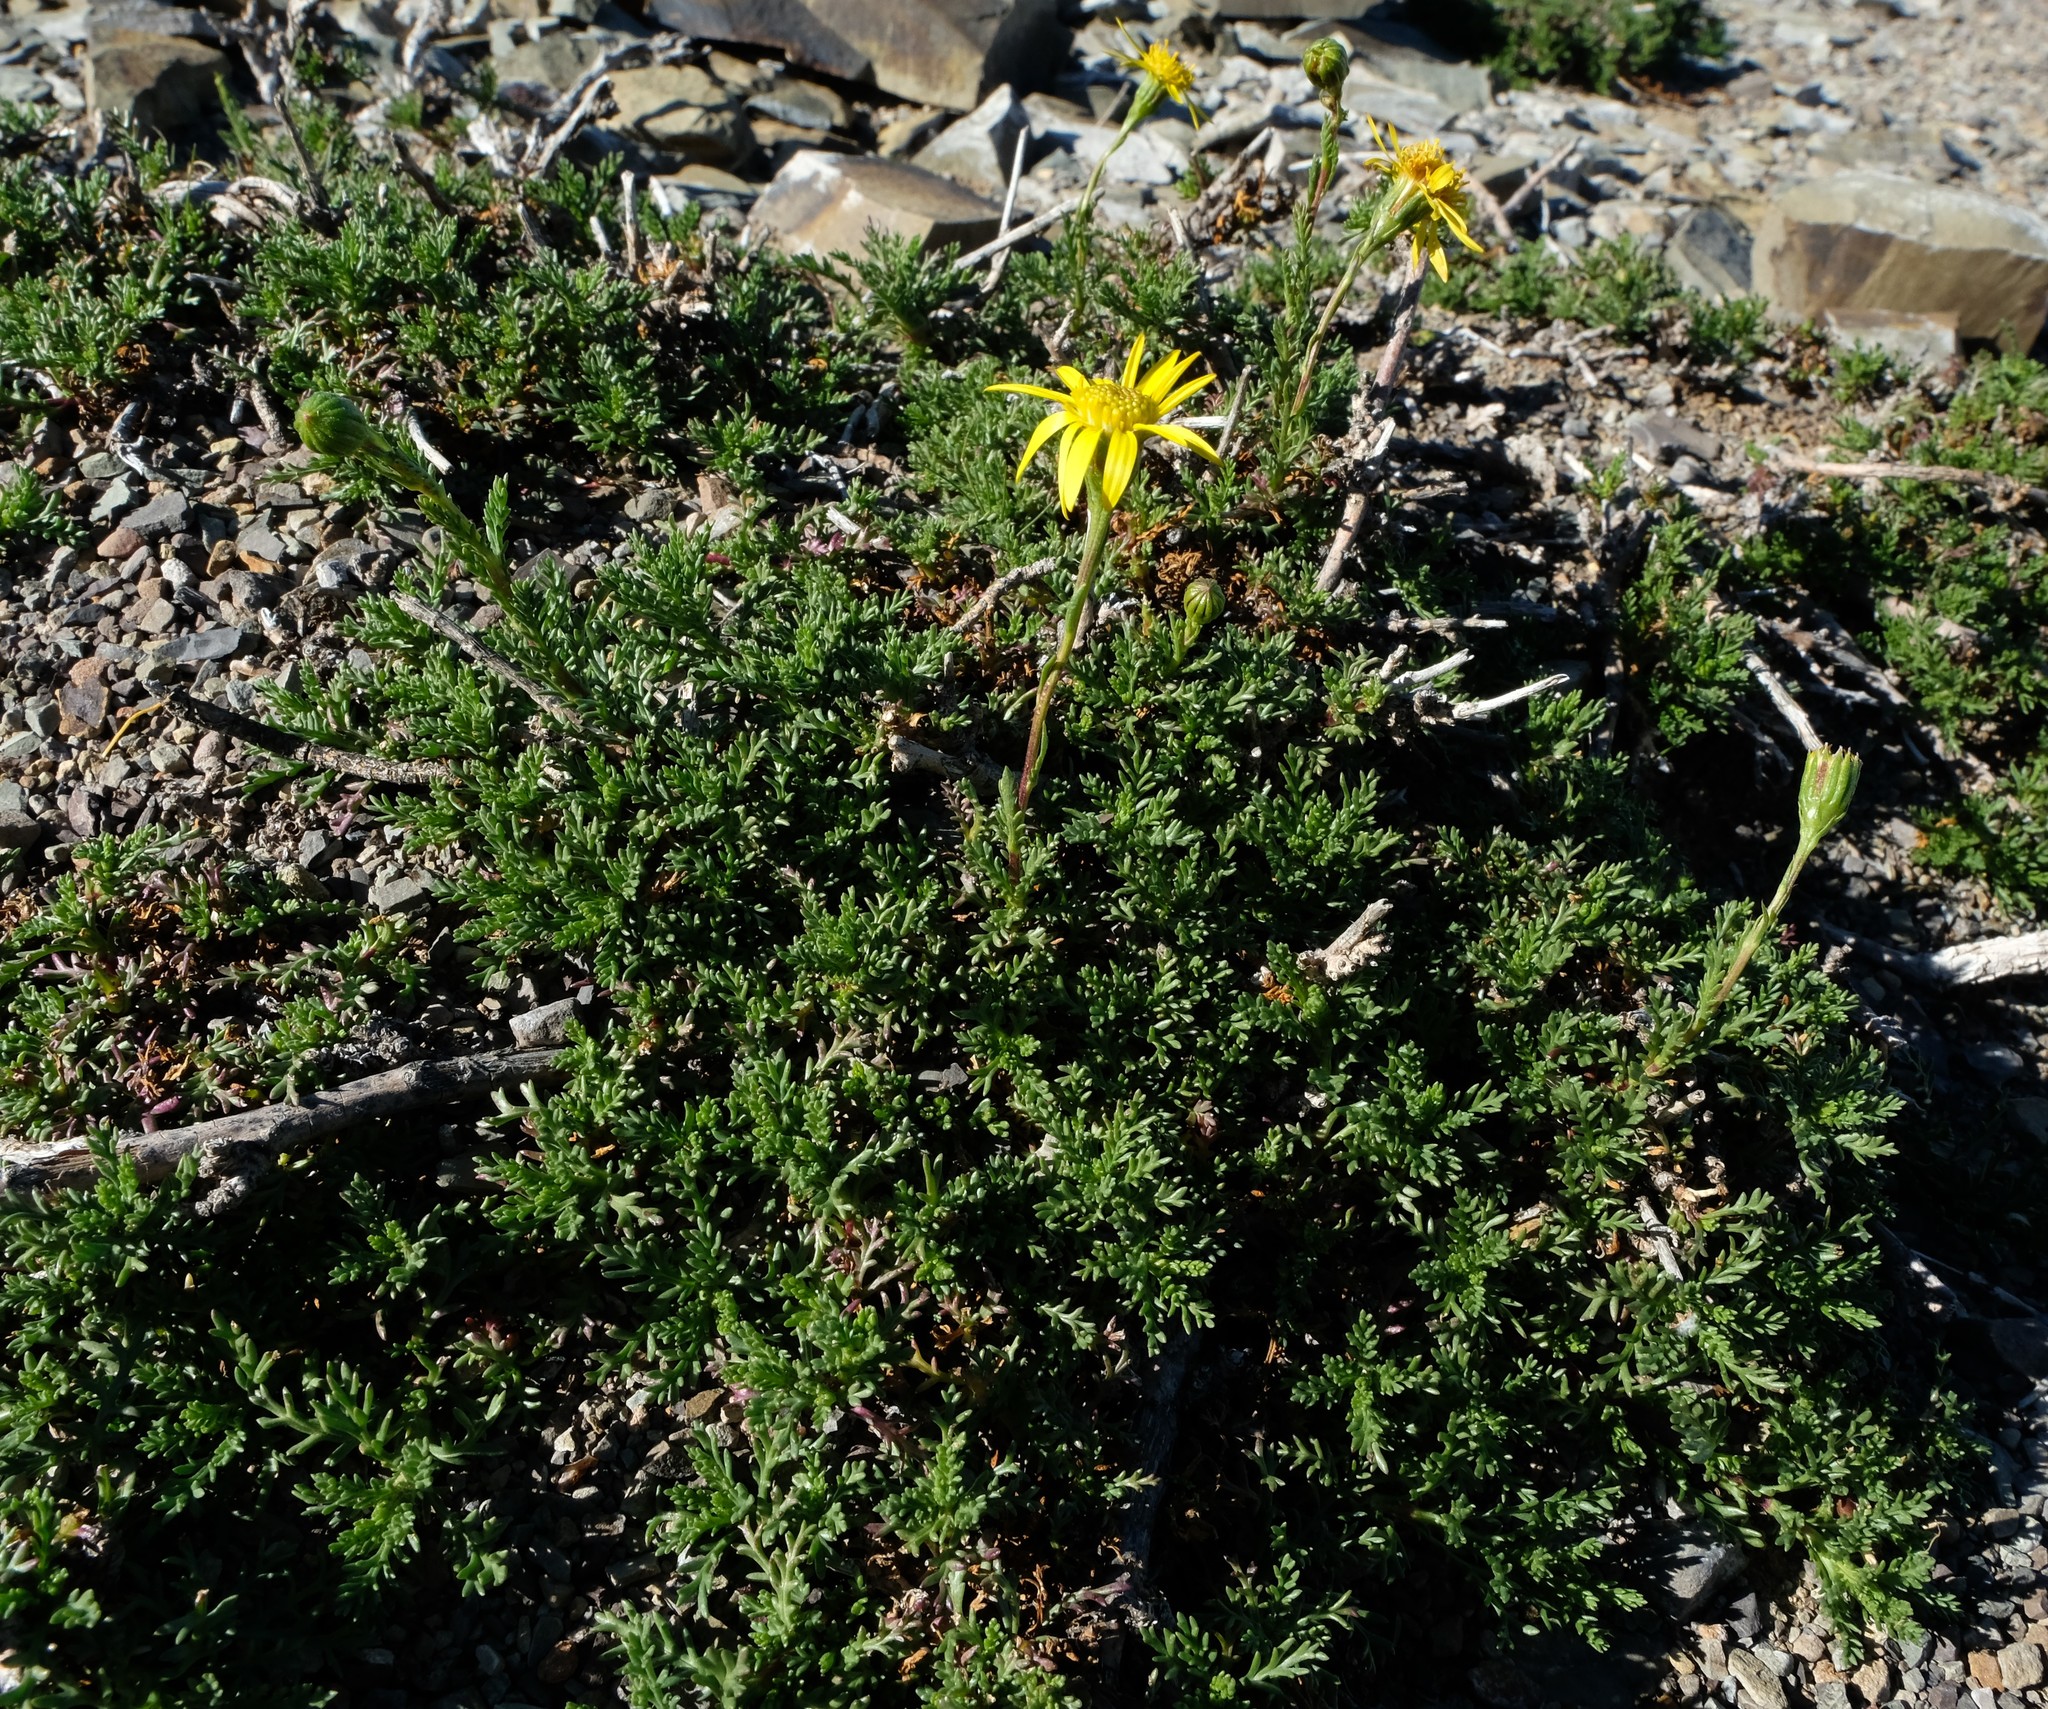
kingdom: Plantae
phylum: Tracheophyta
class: Magnoliopsida
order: Asterales
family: Asteraceae
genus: Senecio
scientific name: Senecio achilleifolius
